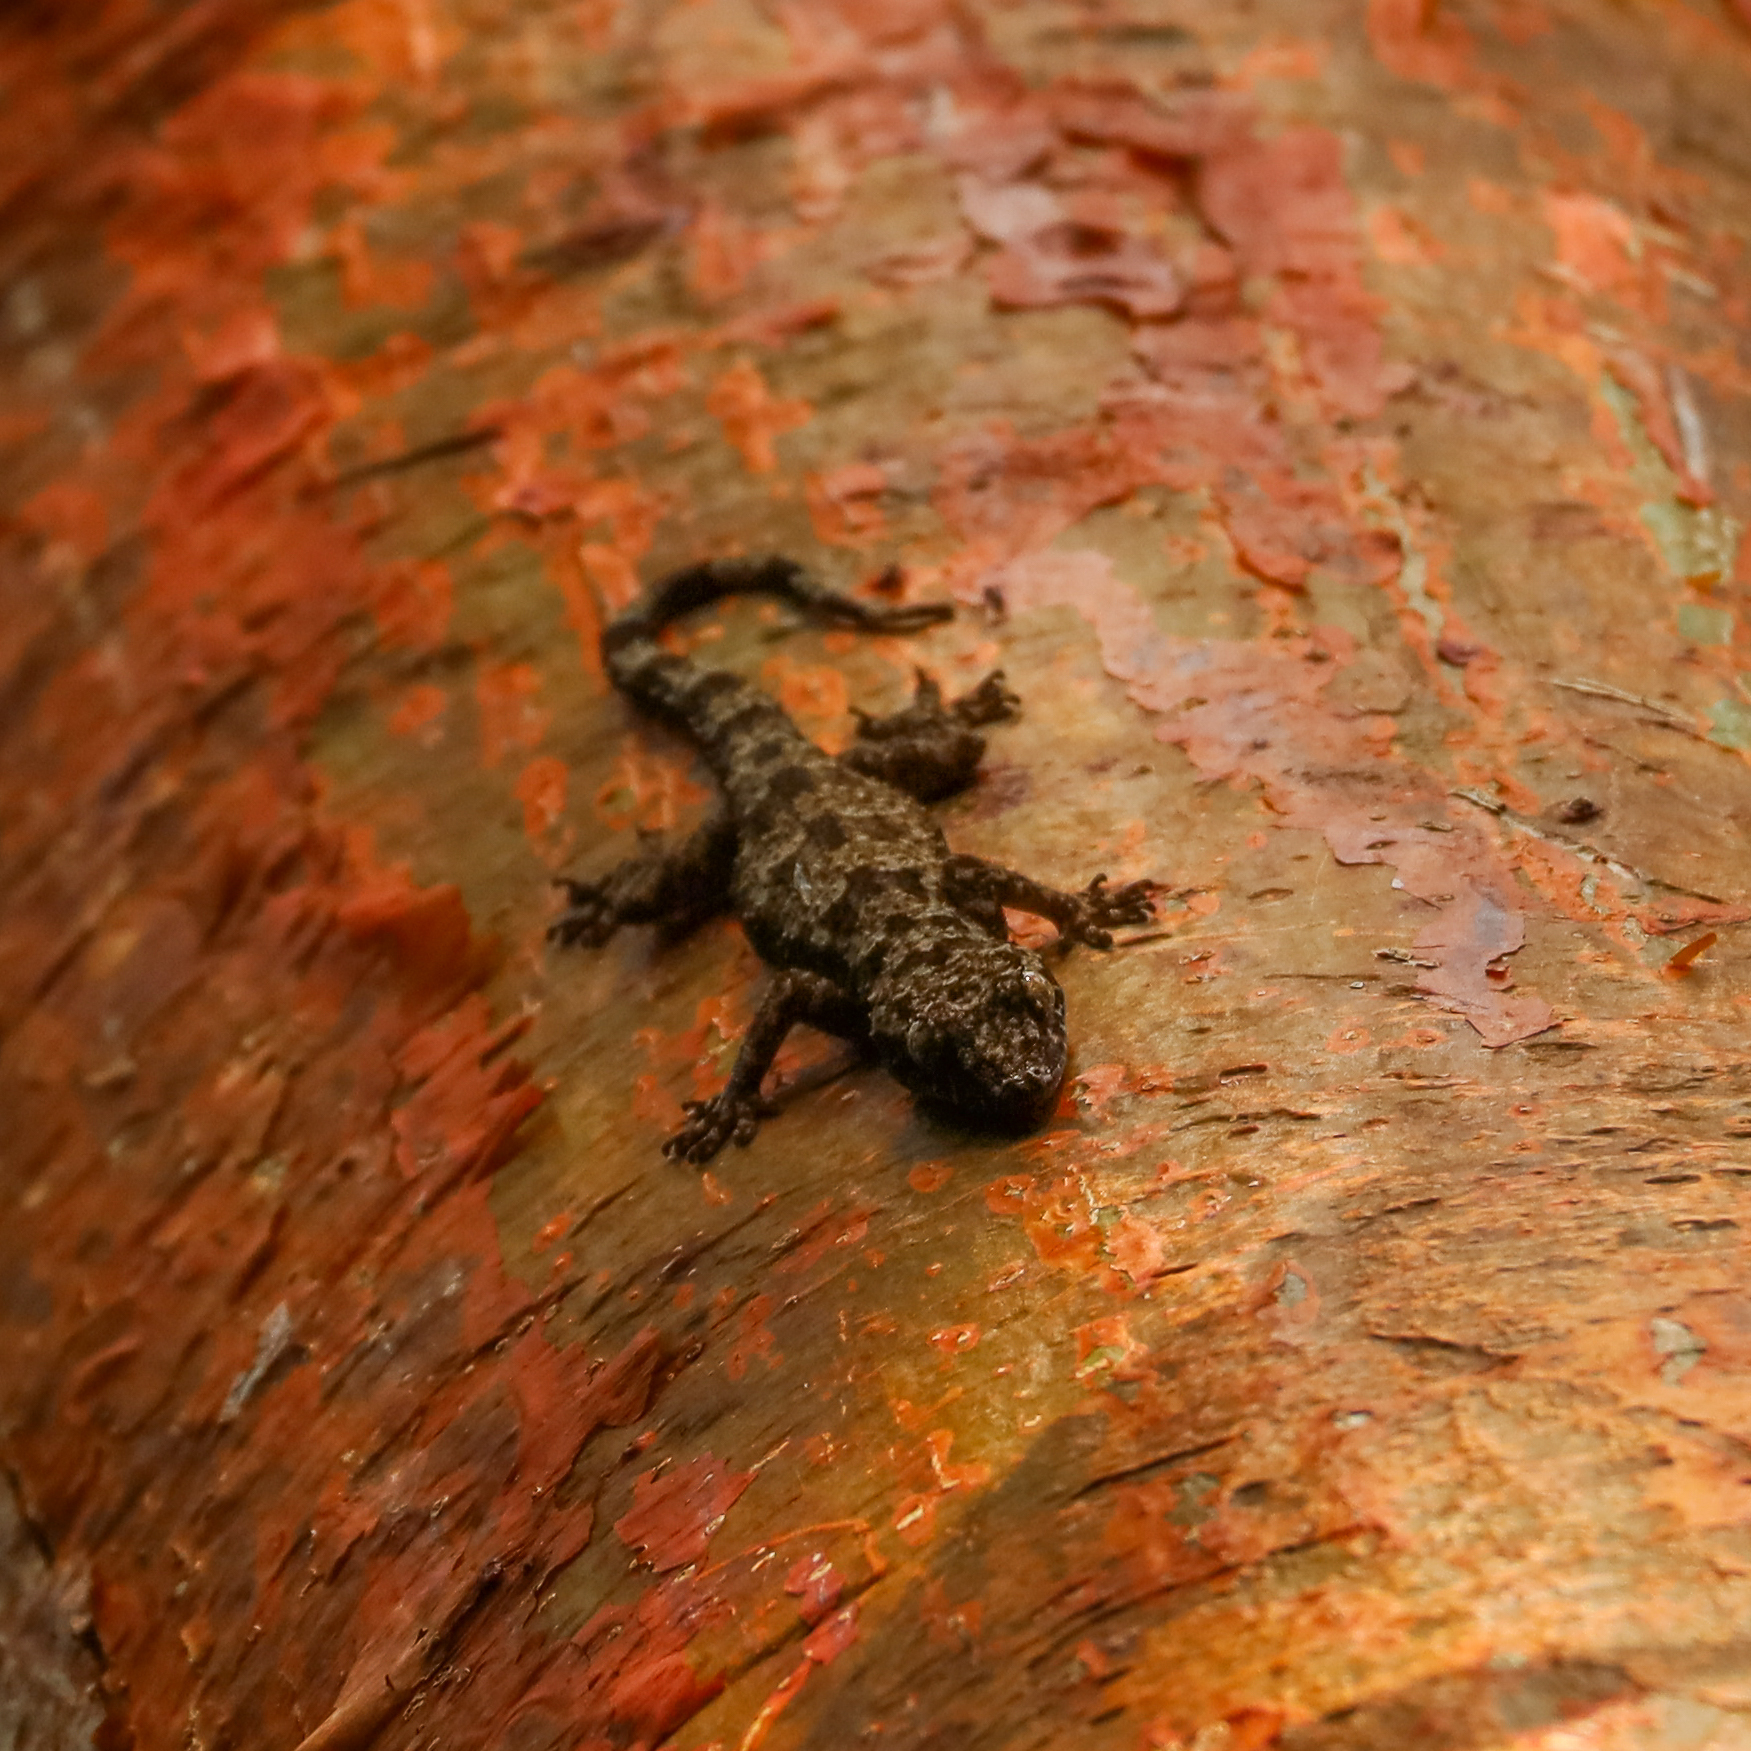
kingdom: Animalia
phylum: Chordata
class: Squamata
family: Gekkonidae
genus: Hemidactylus
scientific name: Hemidactylus mabouia
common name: House gecko
